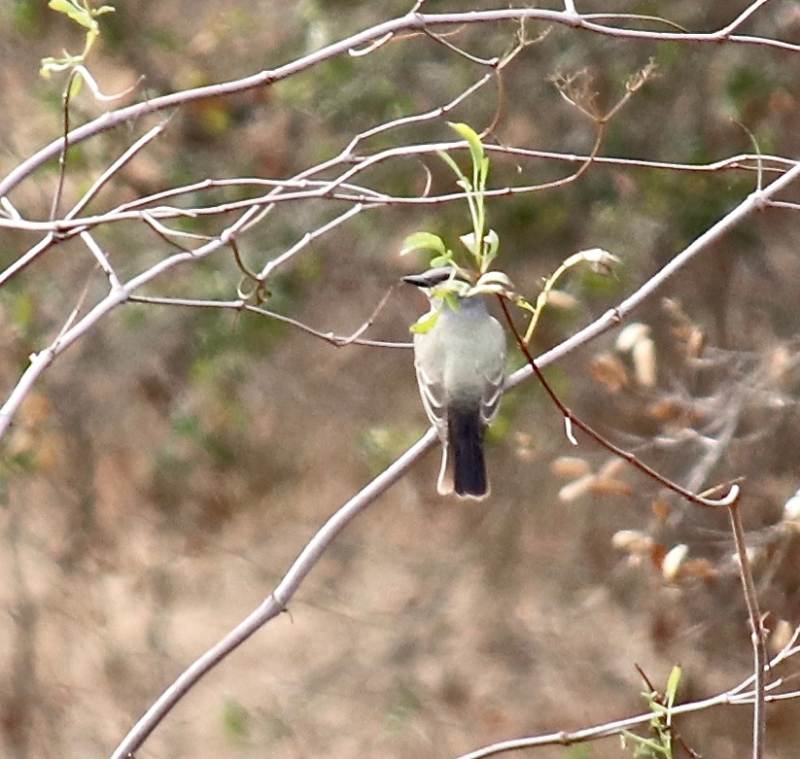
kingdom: Animalia
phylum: Chordata
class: Aves
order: Passeriformes
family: Tyrannidae
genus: Tyrannus
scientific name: Tyrannus verticalis
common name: Western kingbird
